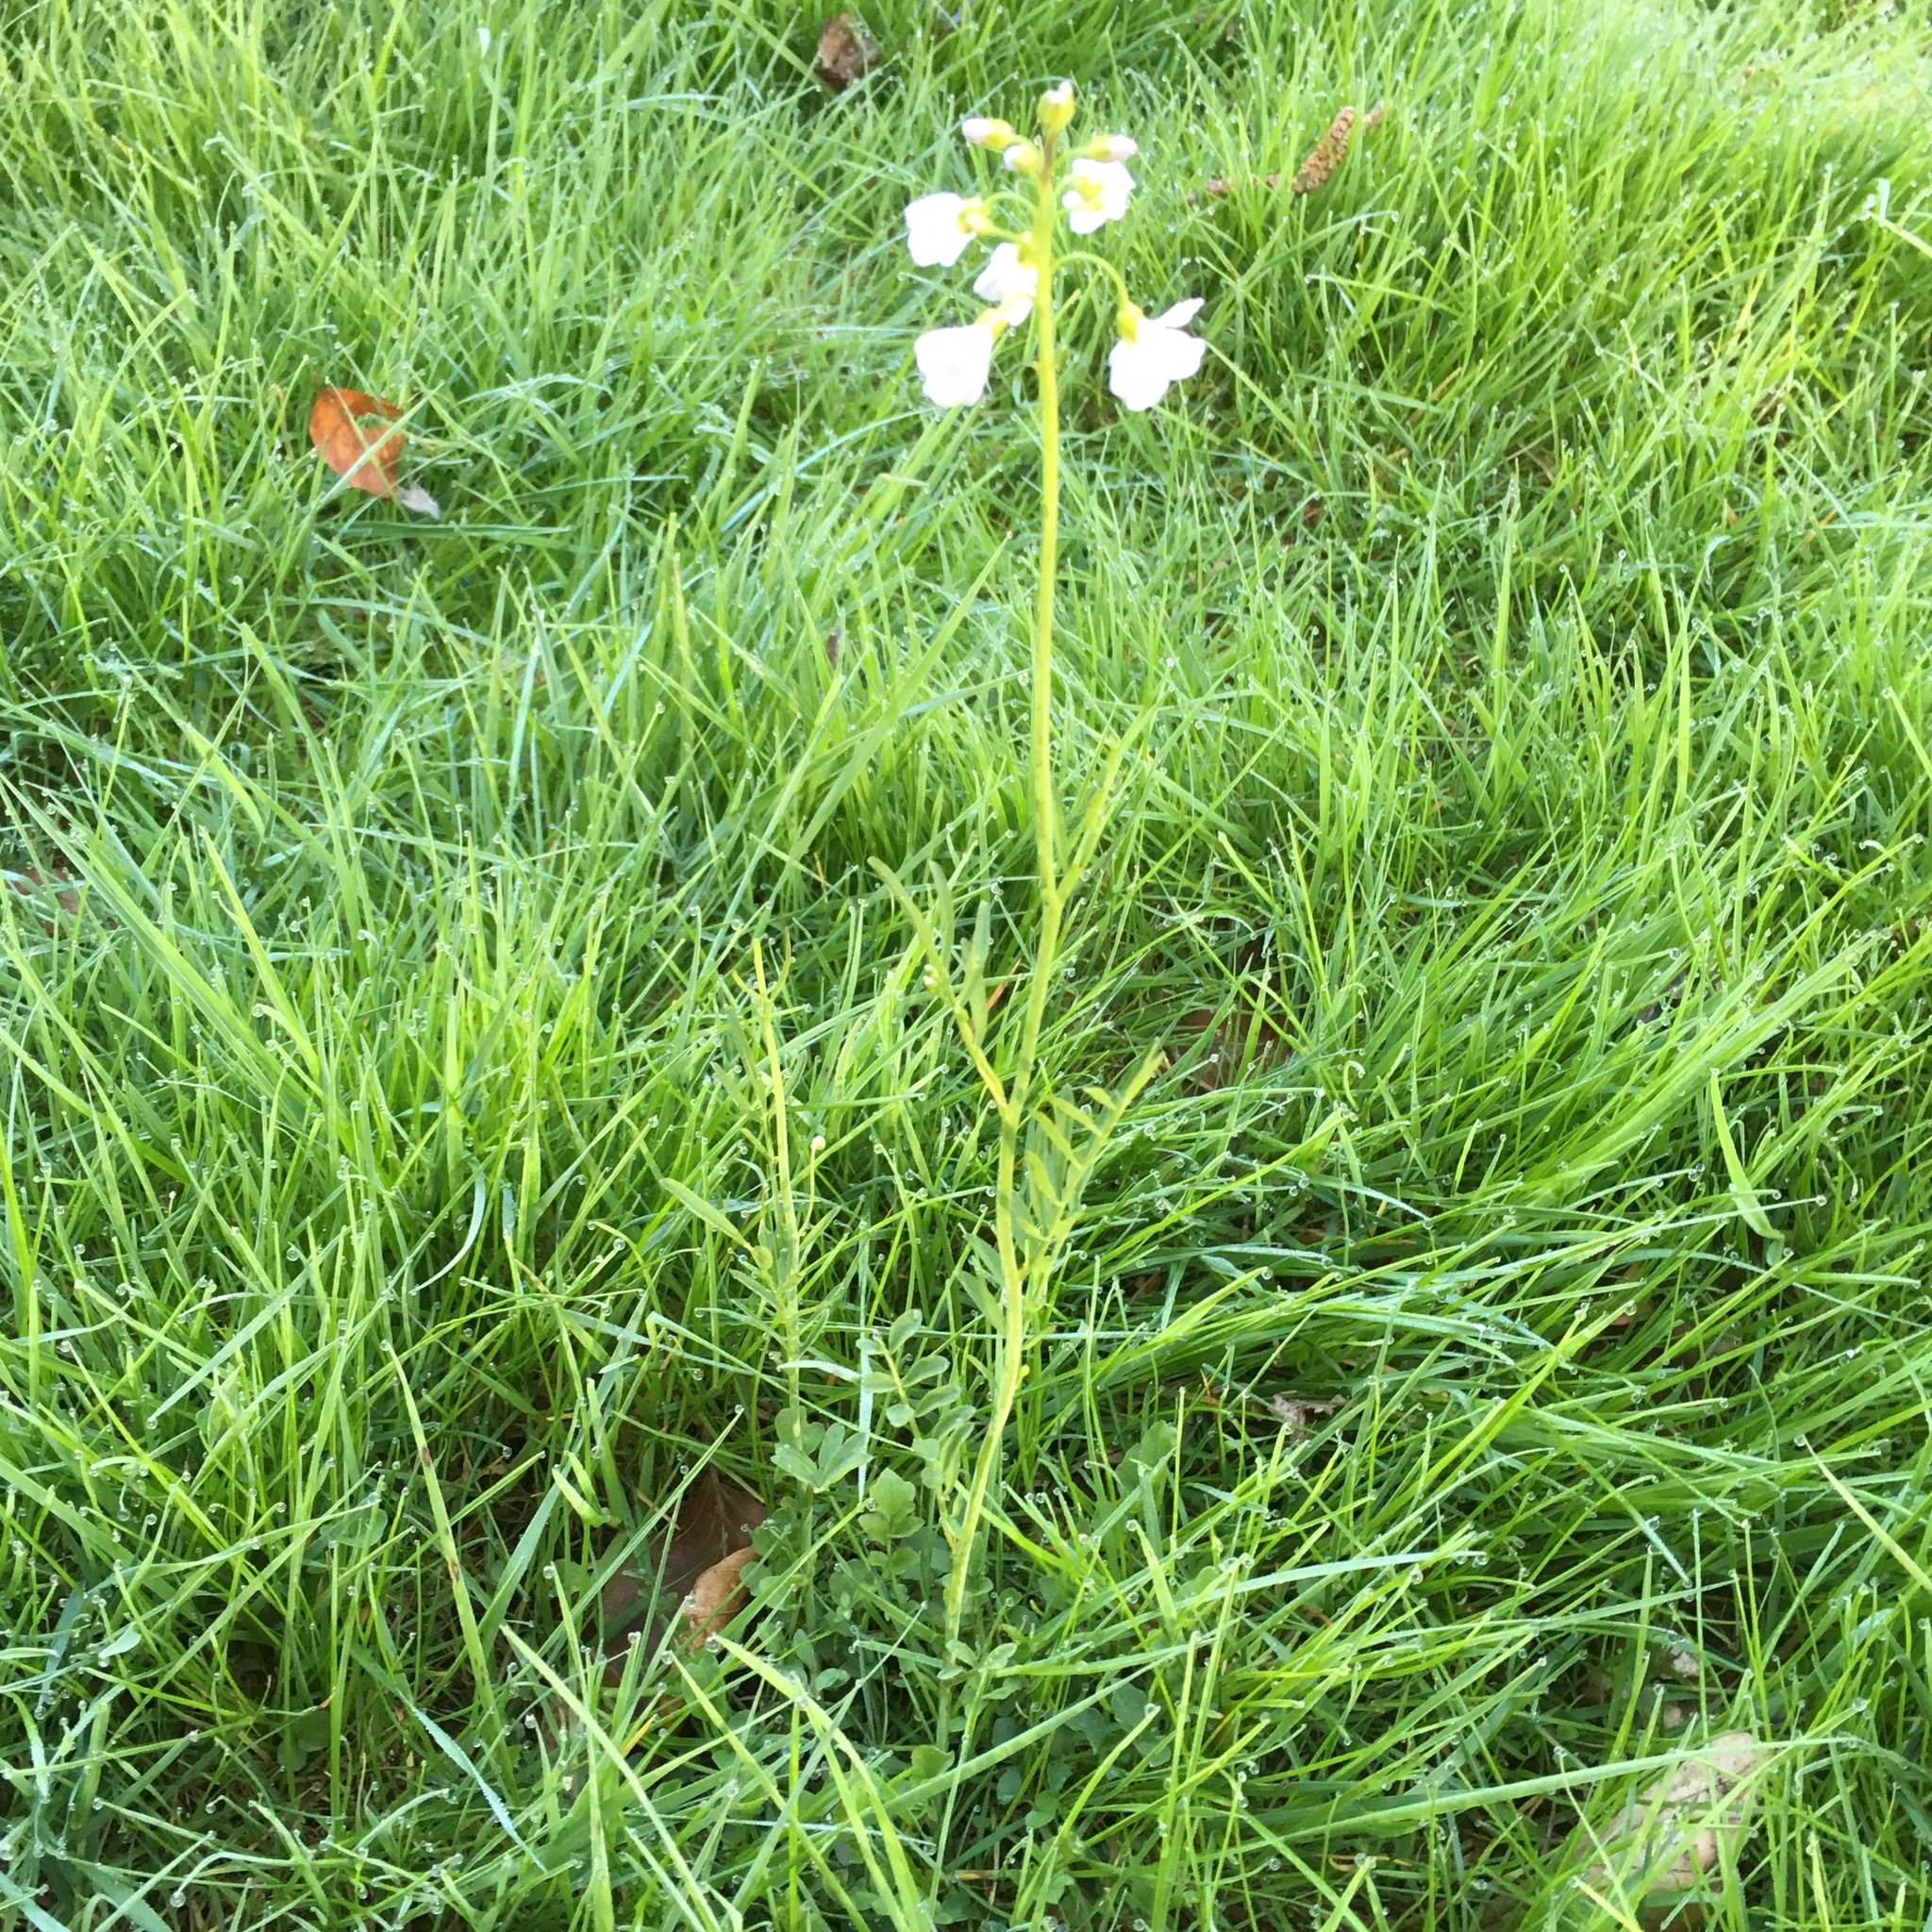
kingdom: Plantae
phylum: Tracheophyta
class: Magnoliopsida
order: Brassicales
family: Brassicaceae
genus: Cardamine
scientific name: Cardamine pratensis
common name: Cuckoo flower
